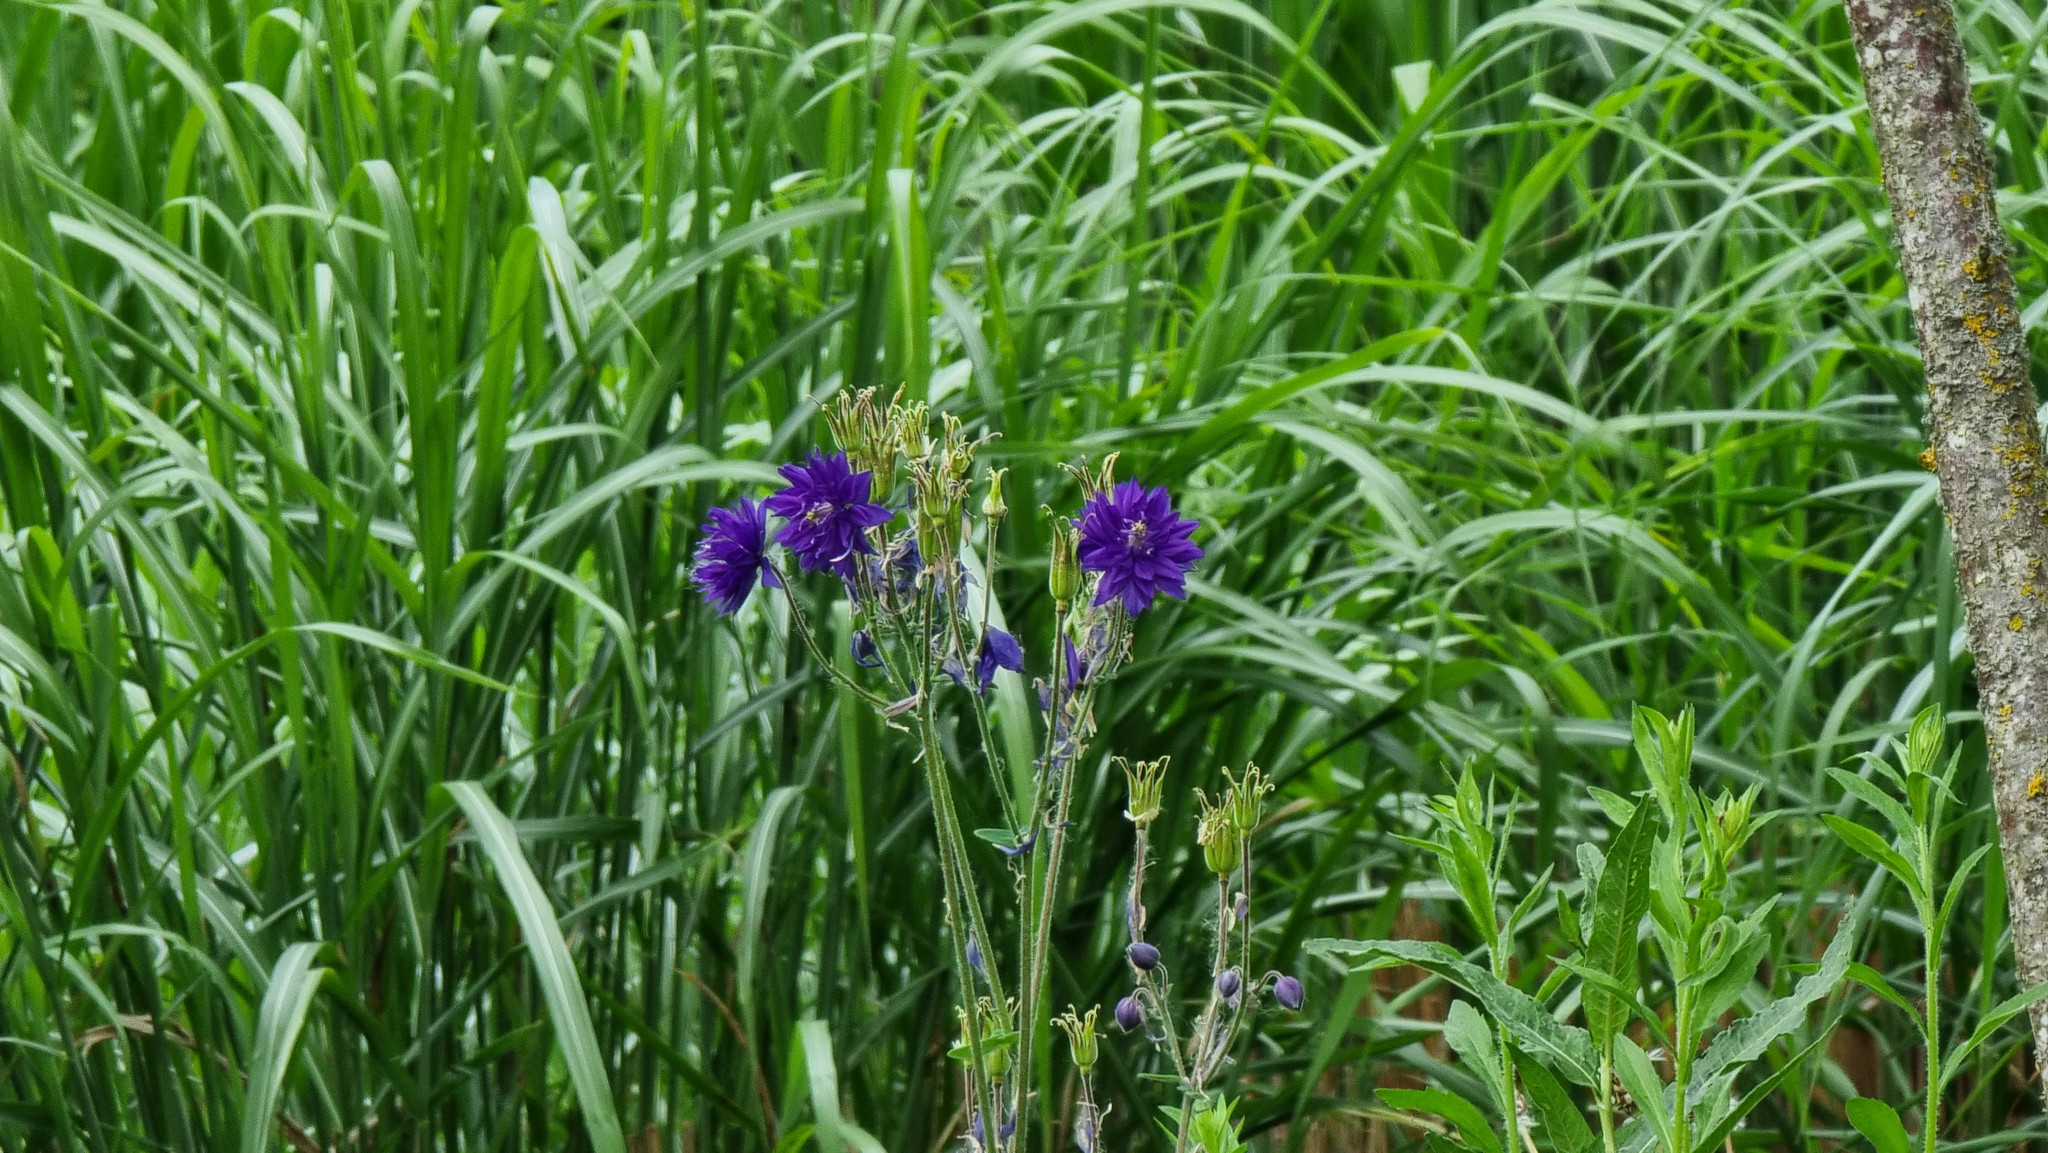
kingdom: Plantae
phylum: Tracheophyta
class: Magnoliopsida
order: Ranunculales
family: Ranunculaceae
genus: Aquilegia
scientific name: Aquilegia vulgaris
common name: Columbine
